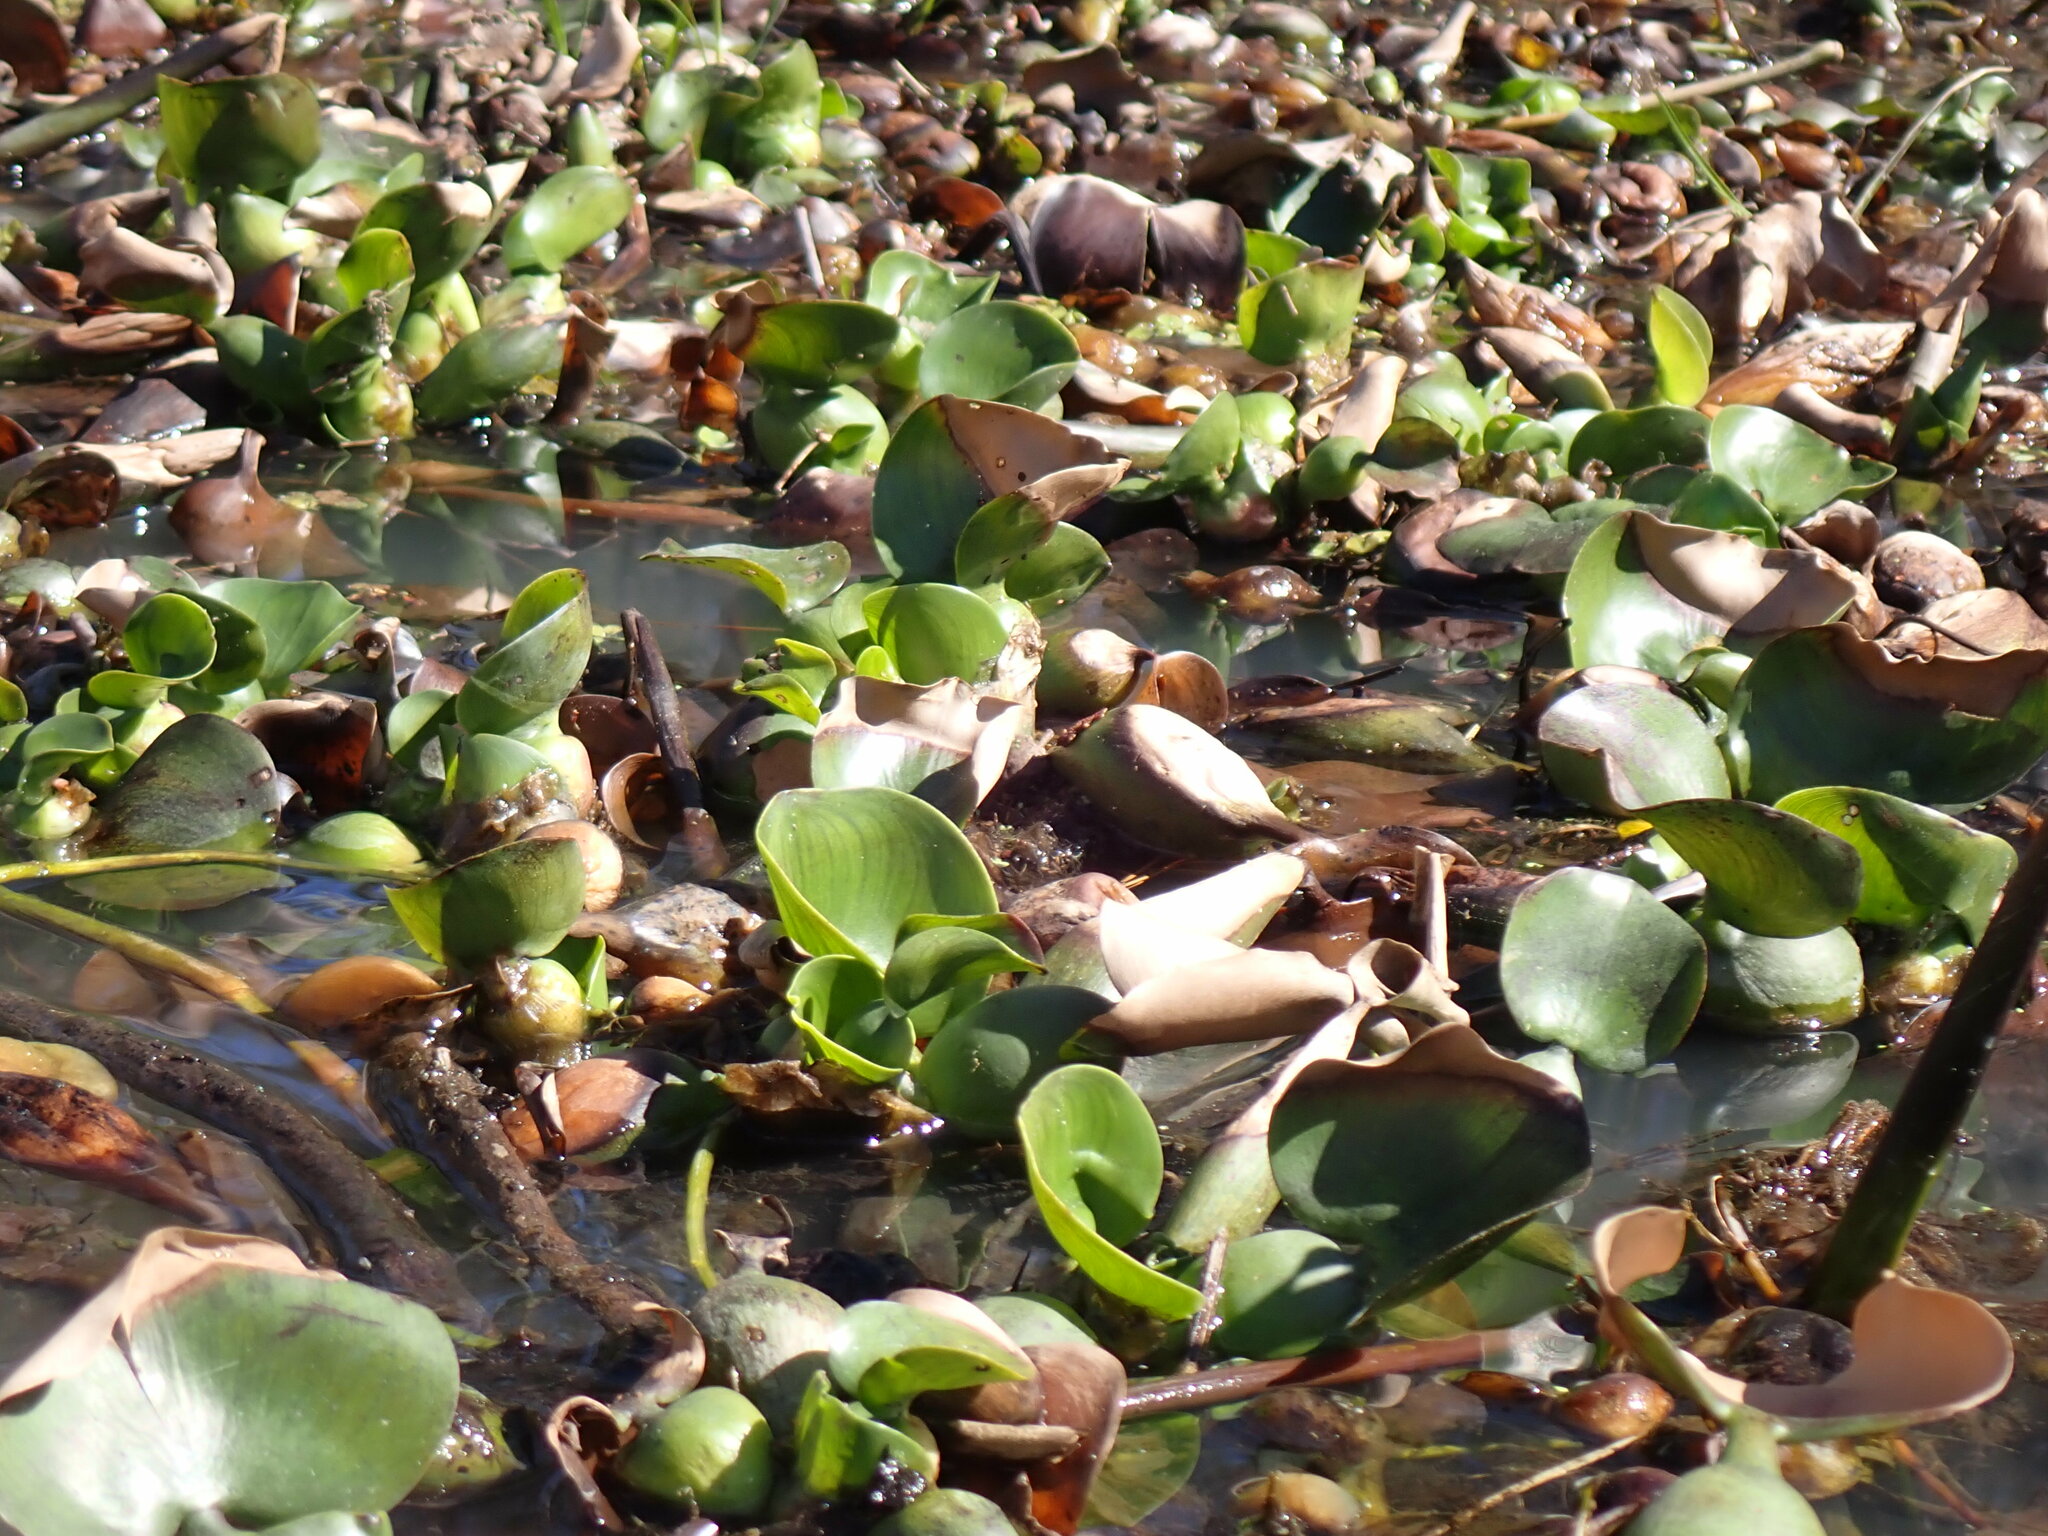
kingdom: Plantae
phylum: Tracheophyta
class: Liliopsida
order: Commelinales
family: Pontederiaceae
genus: Pontederia
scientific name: Pontederia crassipes
